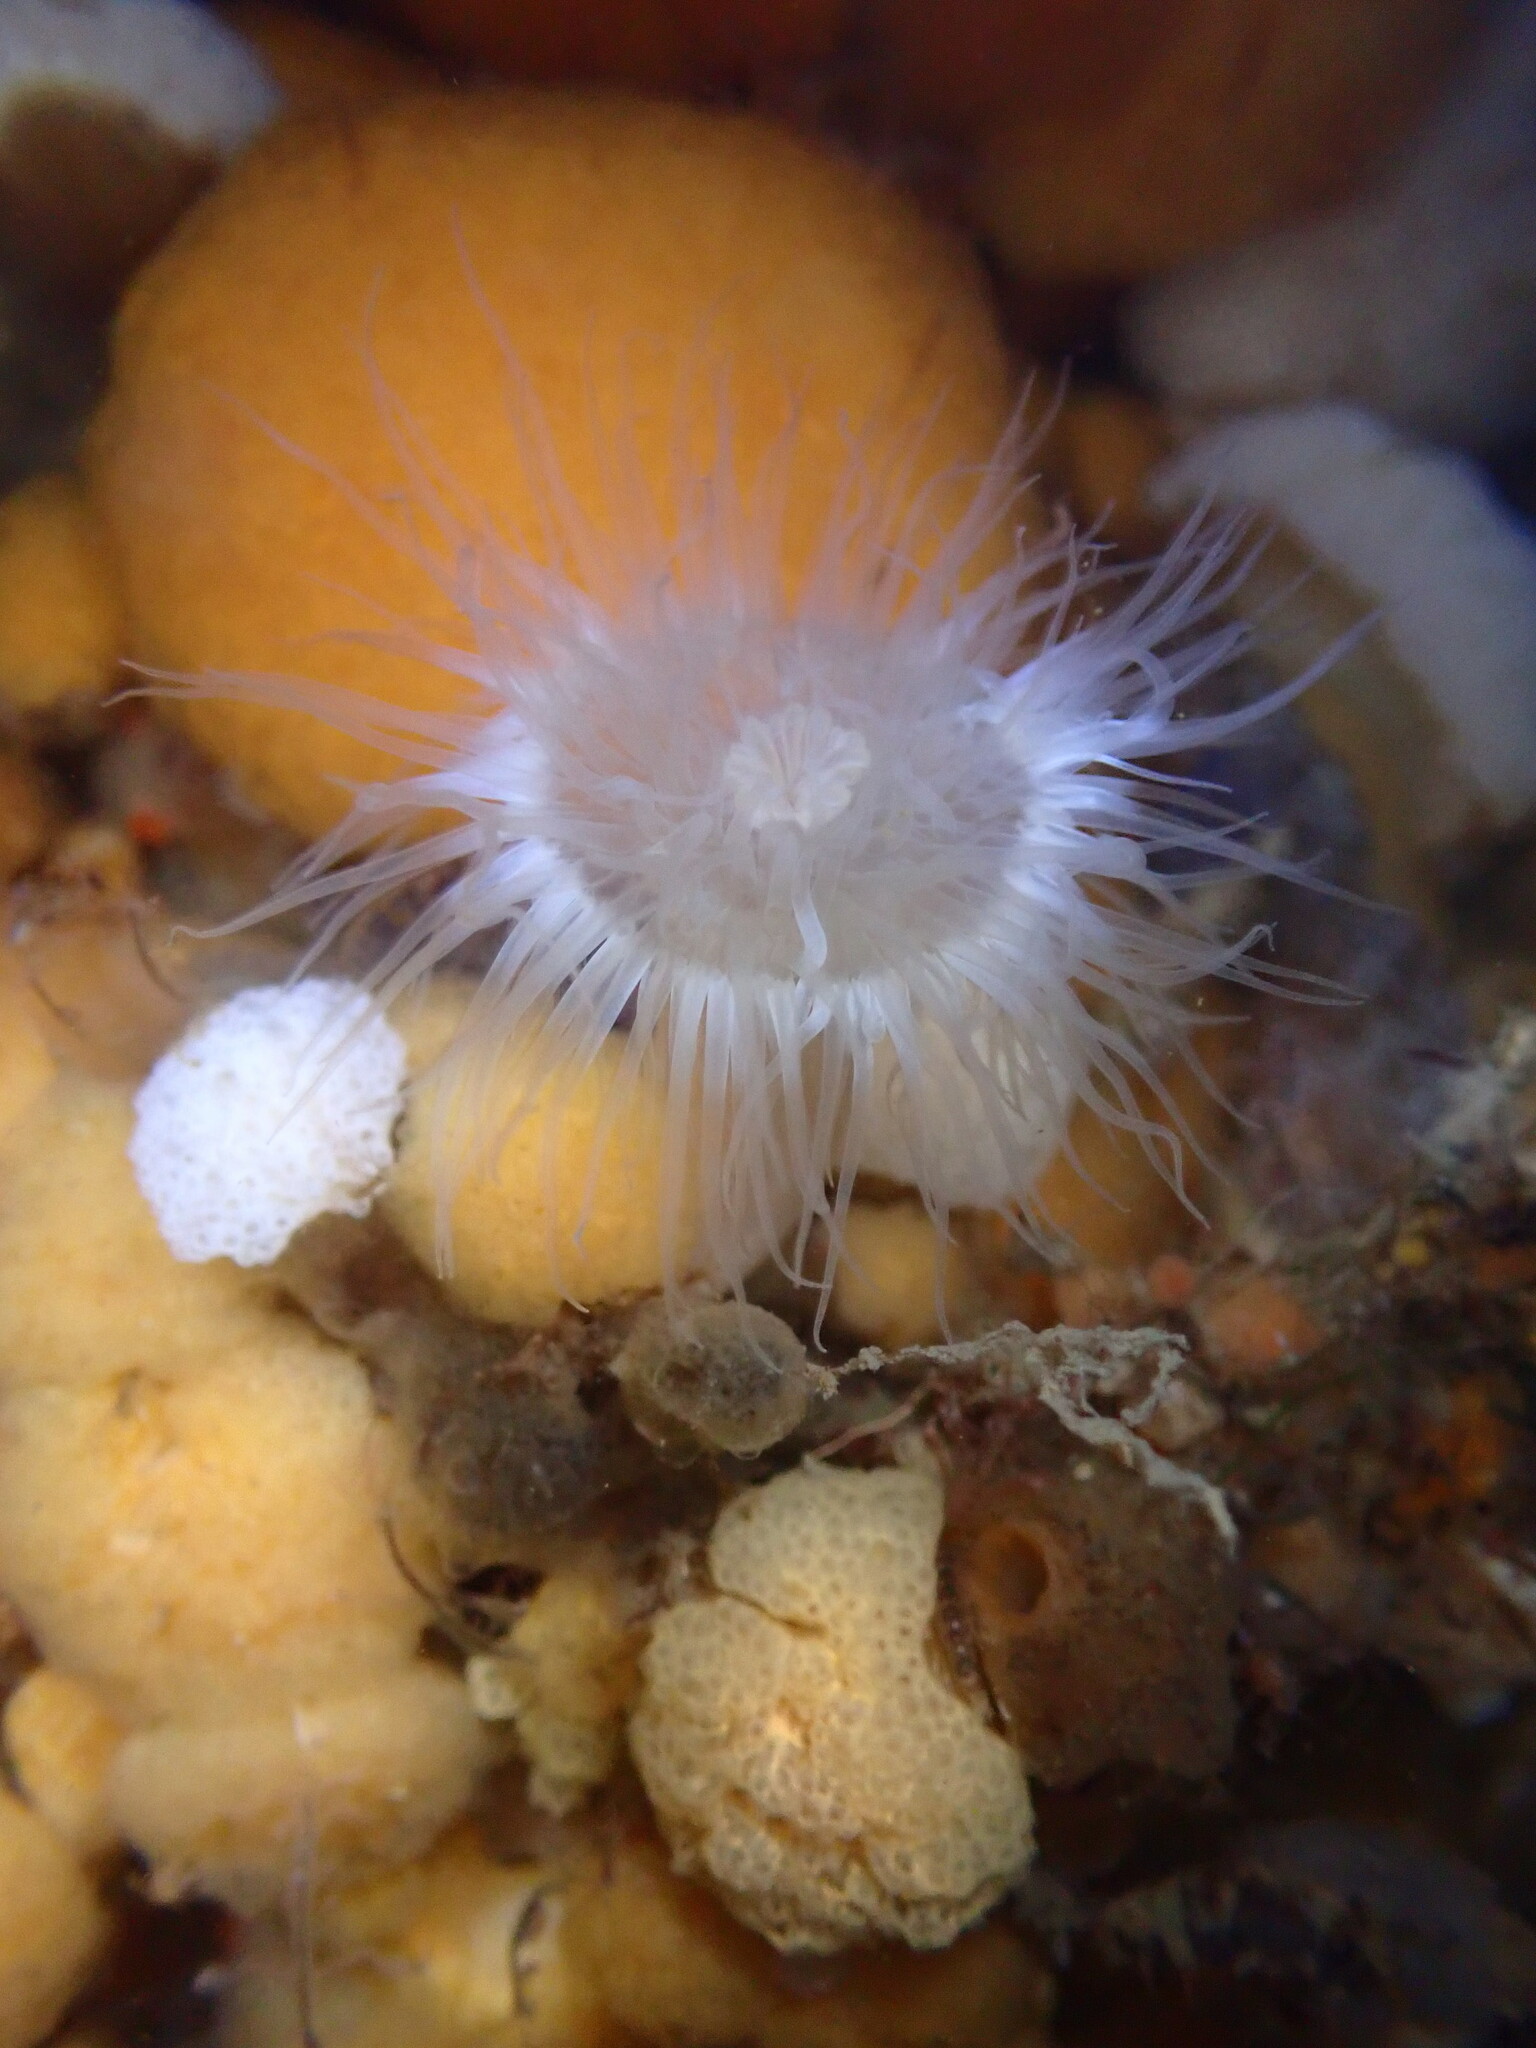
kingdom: Animalia
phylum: Cnidaria
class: Anthozoa
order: Actiniaria
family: Metridiidae
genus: Metridium
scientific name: Metridium senile
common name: Clonal plumose anemone
